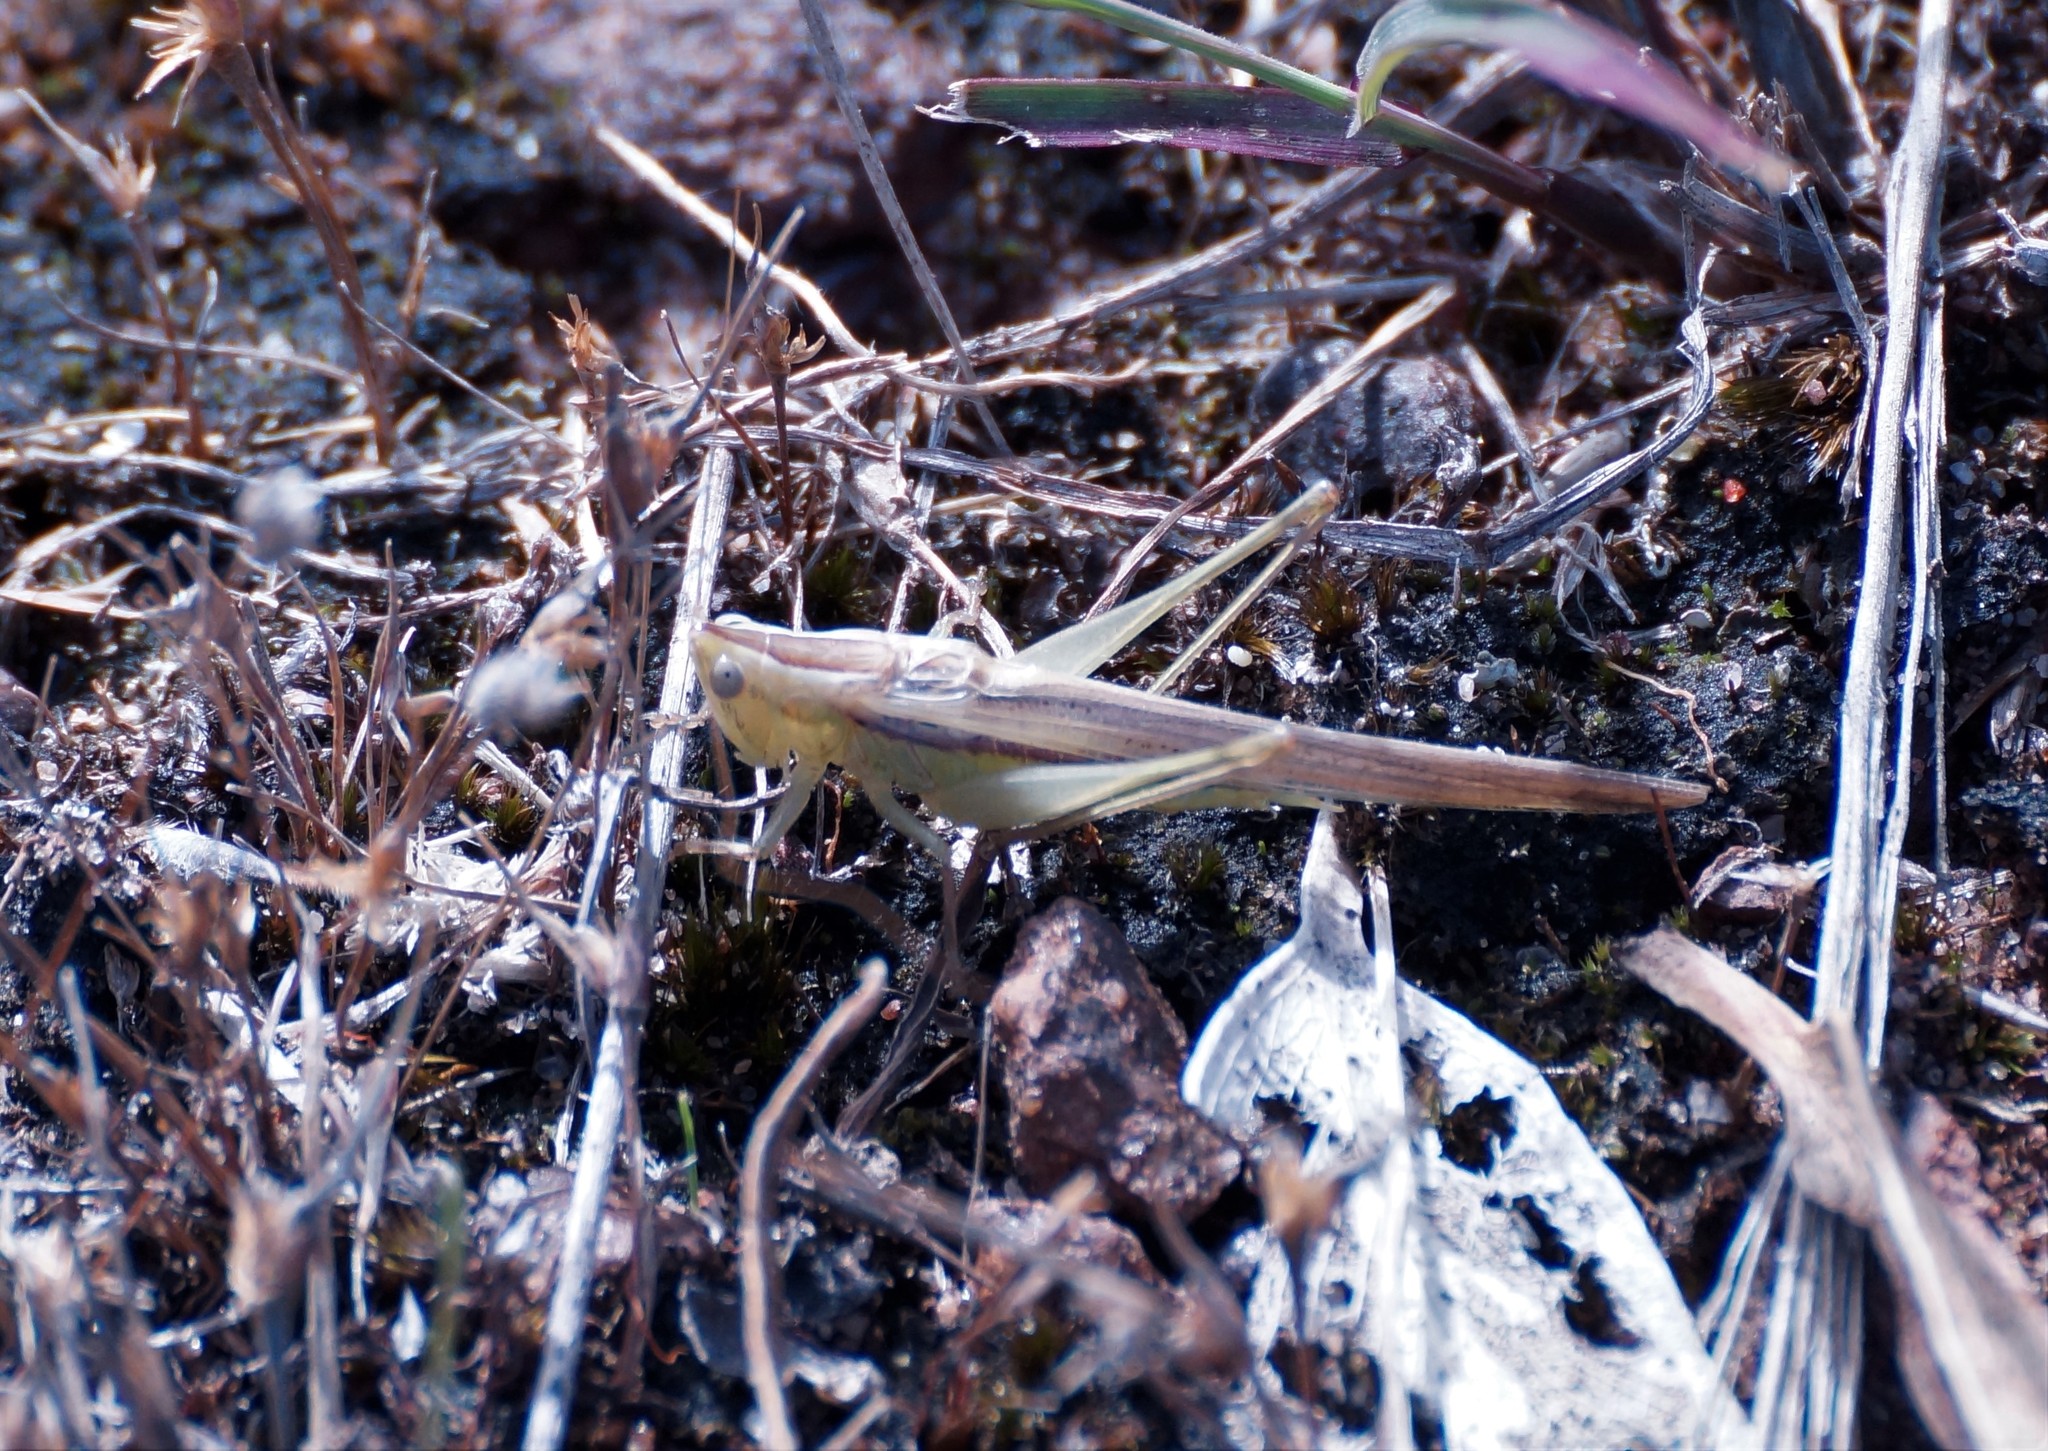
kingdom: Animalia
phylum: Arthropoda
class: Insecta
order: Orthoptera
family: Tettigoniidae
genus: Conocephalus
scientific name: Conocephalus upoluensis
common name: Upolu meadow katydid
